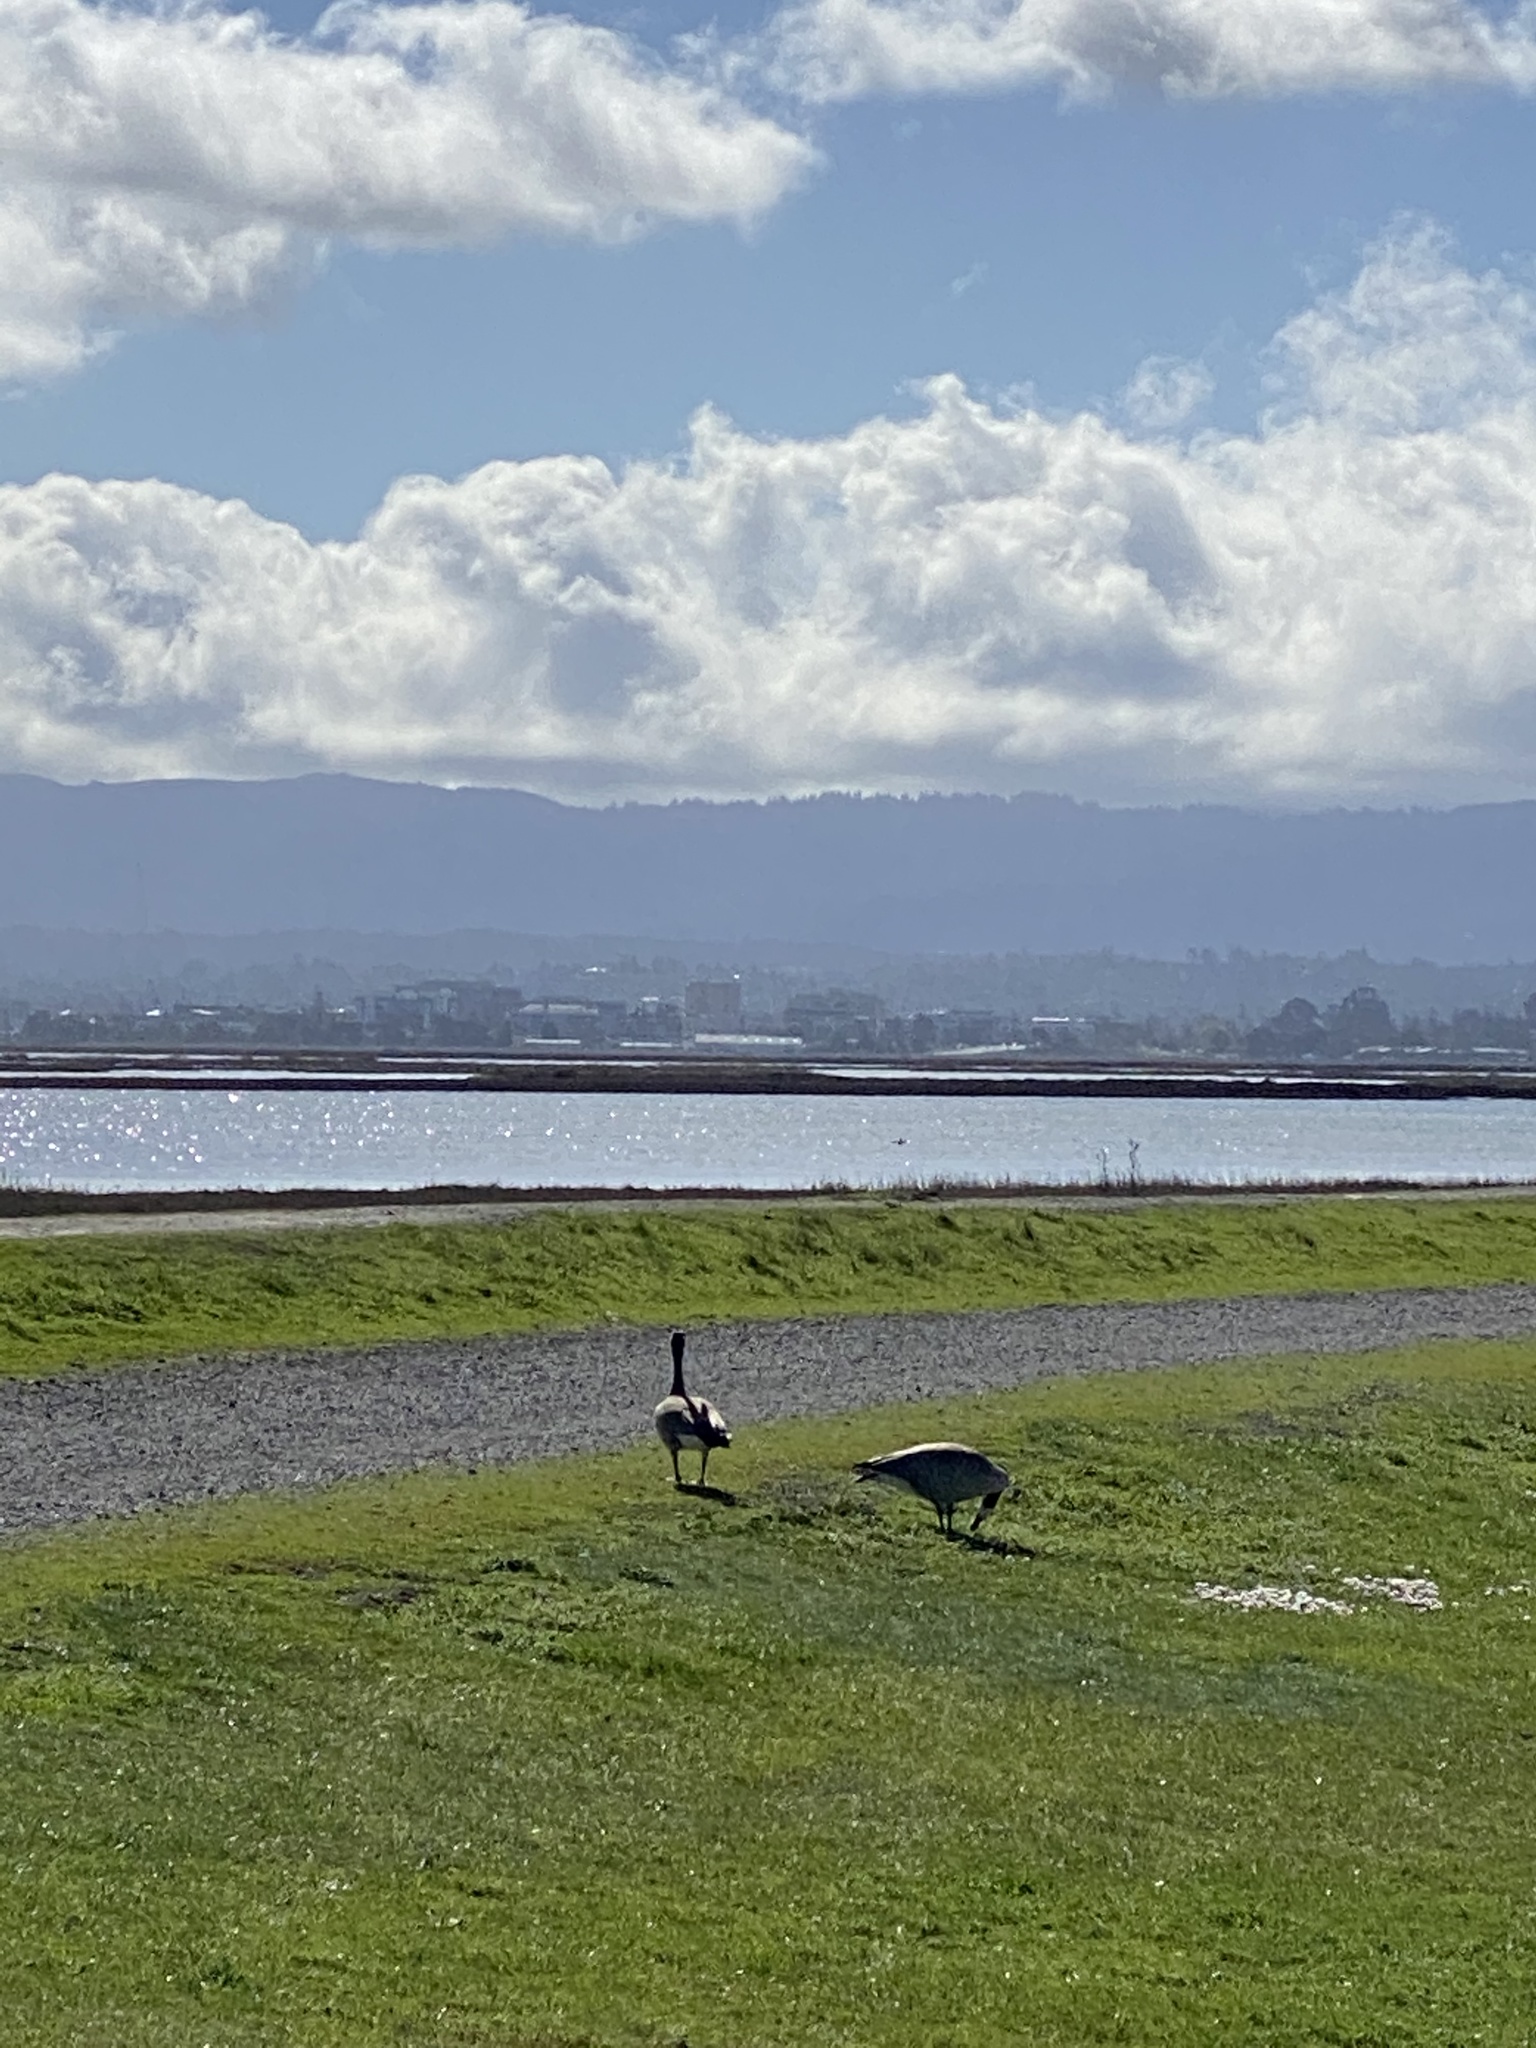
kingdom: Animalia
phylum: Chordata
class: Aves
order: Anseriformes
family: Anatidae
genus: Branta
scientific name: Branta canadensis
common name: Canada goose
